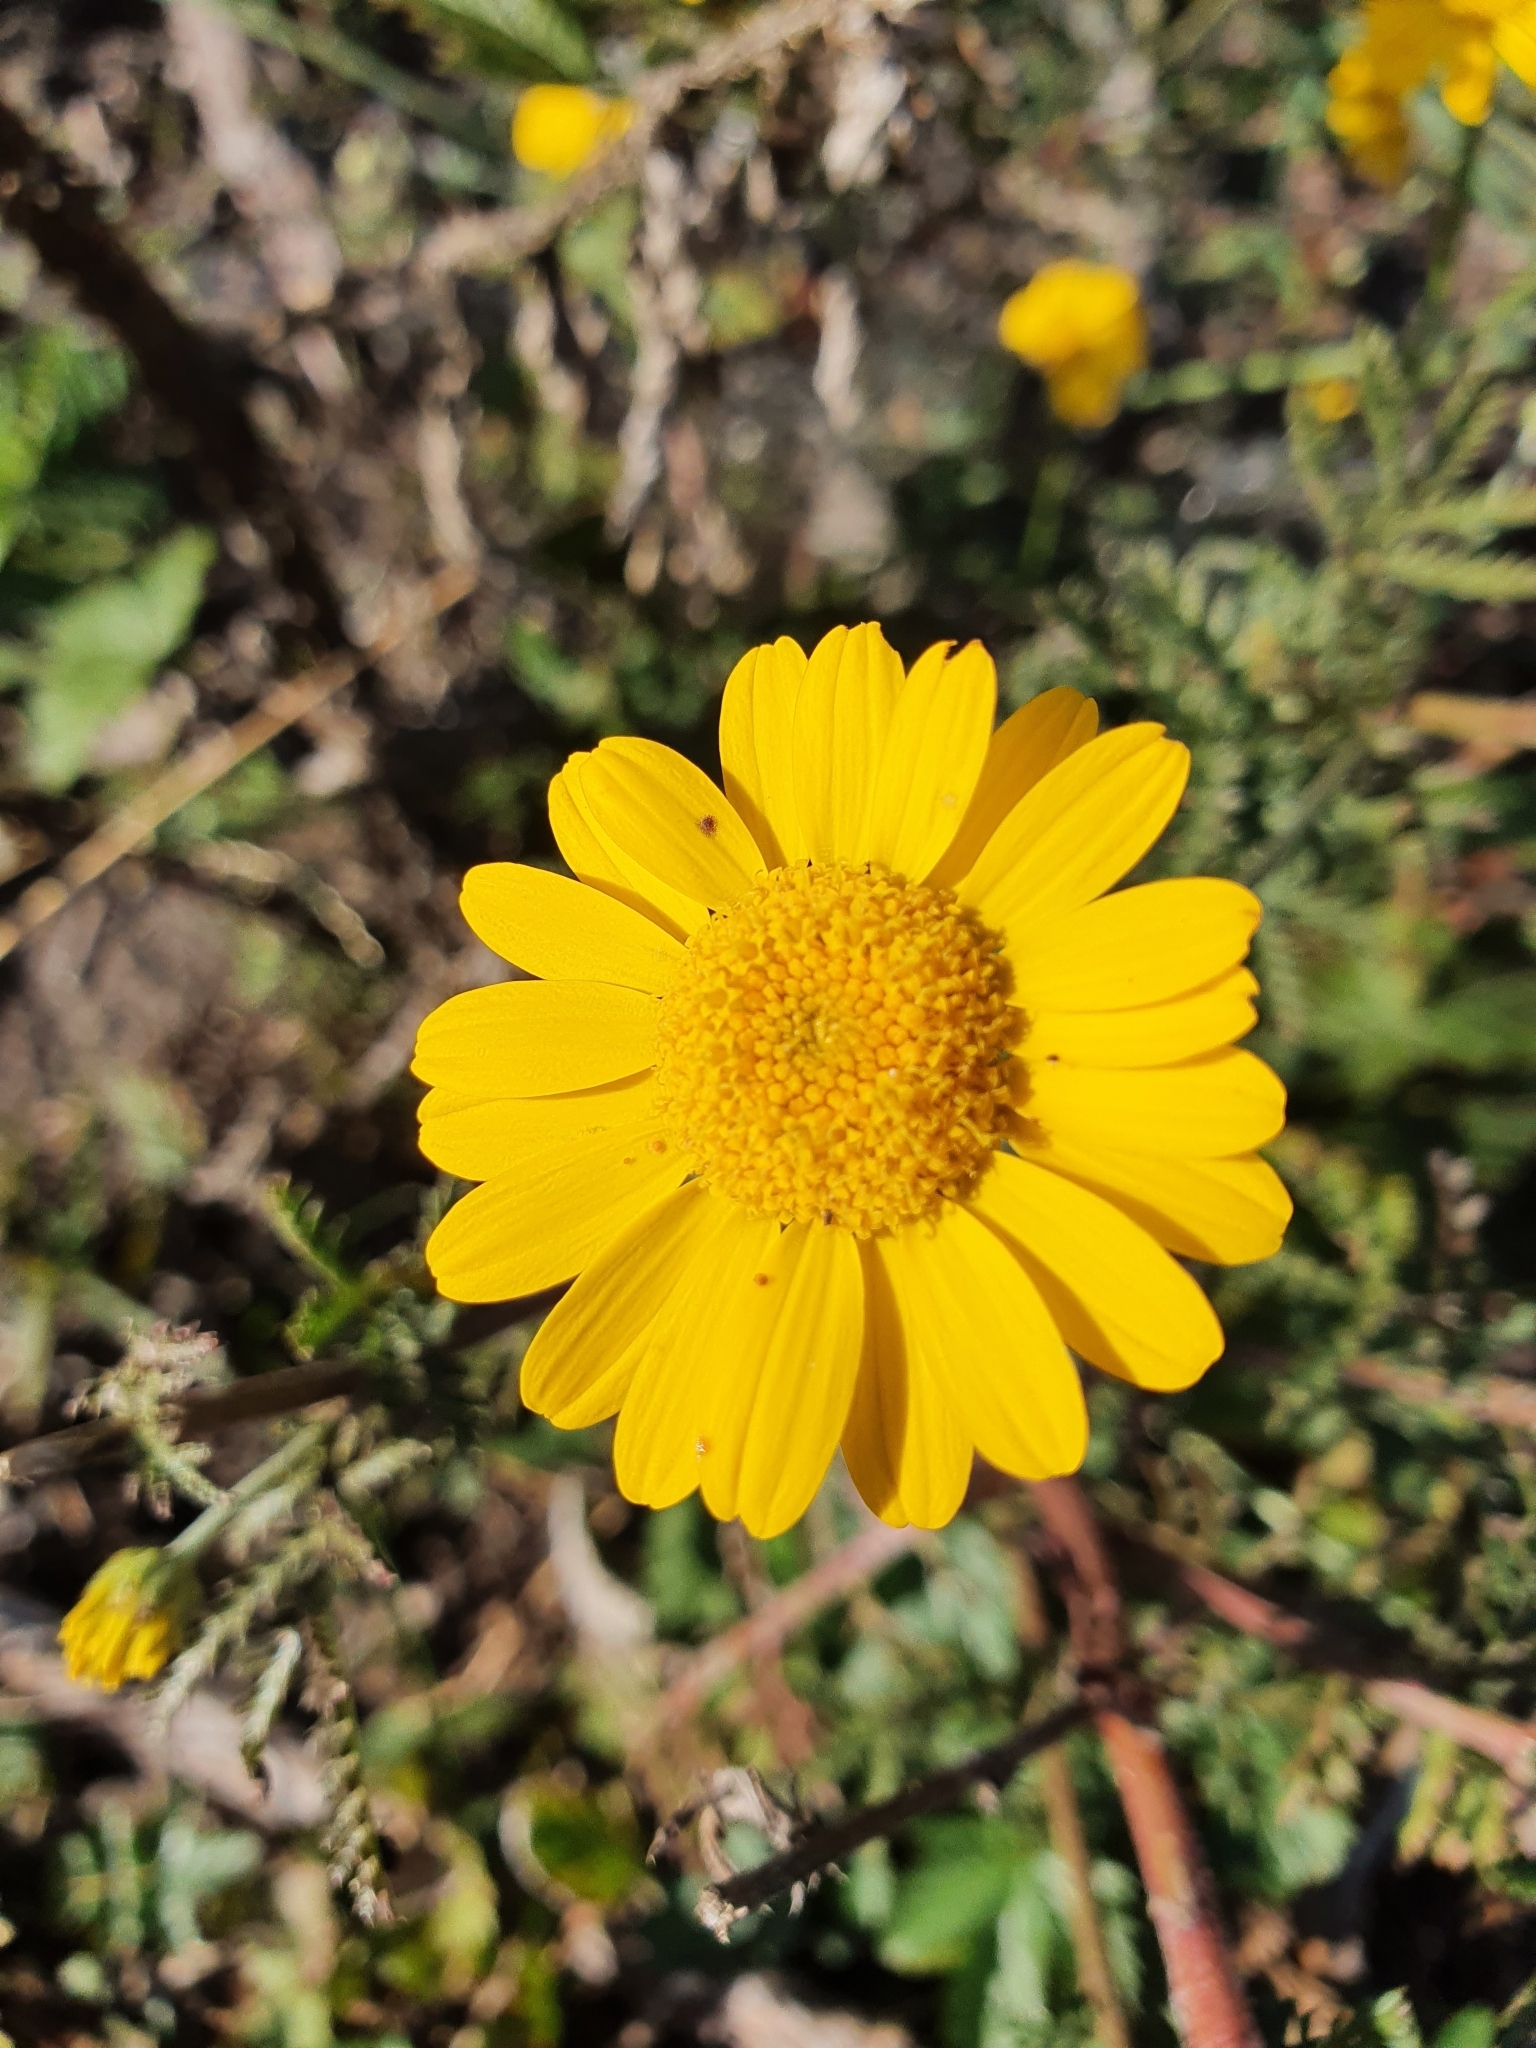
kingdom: Plantae
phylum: Tracheophyta
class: Magnoliopsida
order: Asterales
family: Asteraceae
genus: Cota
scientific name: Cota tinctoria
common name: Golden chamomile
